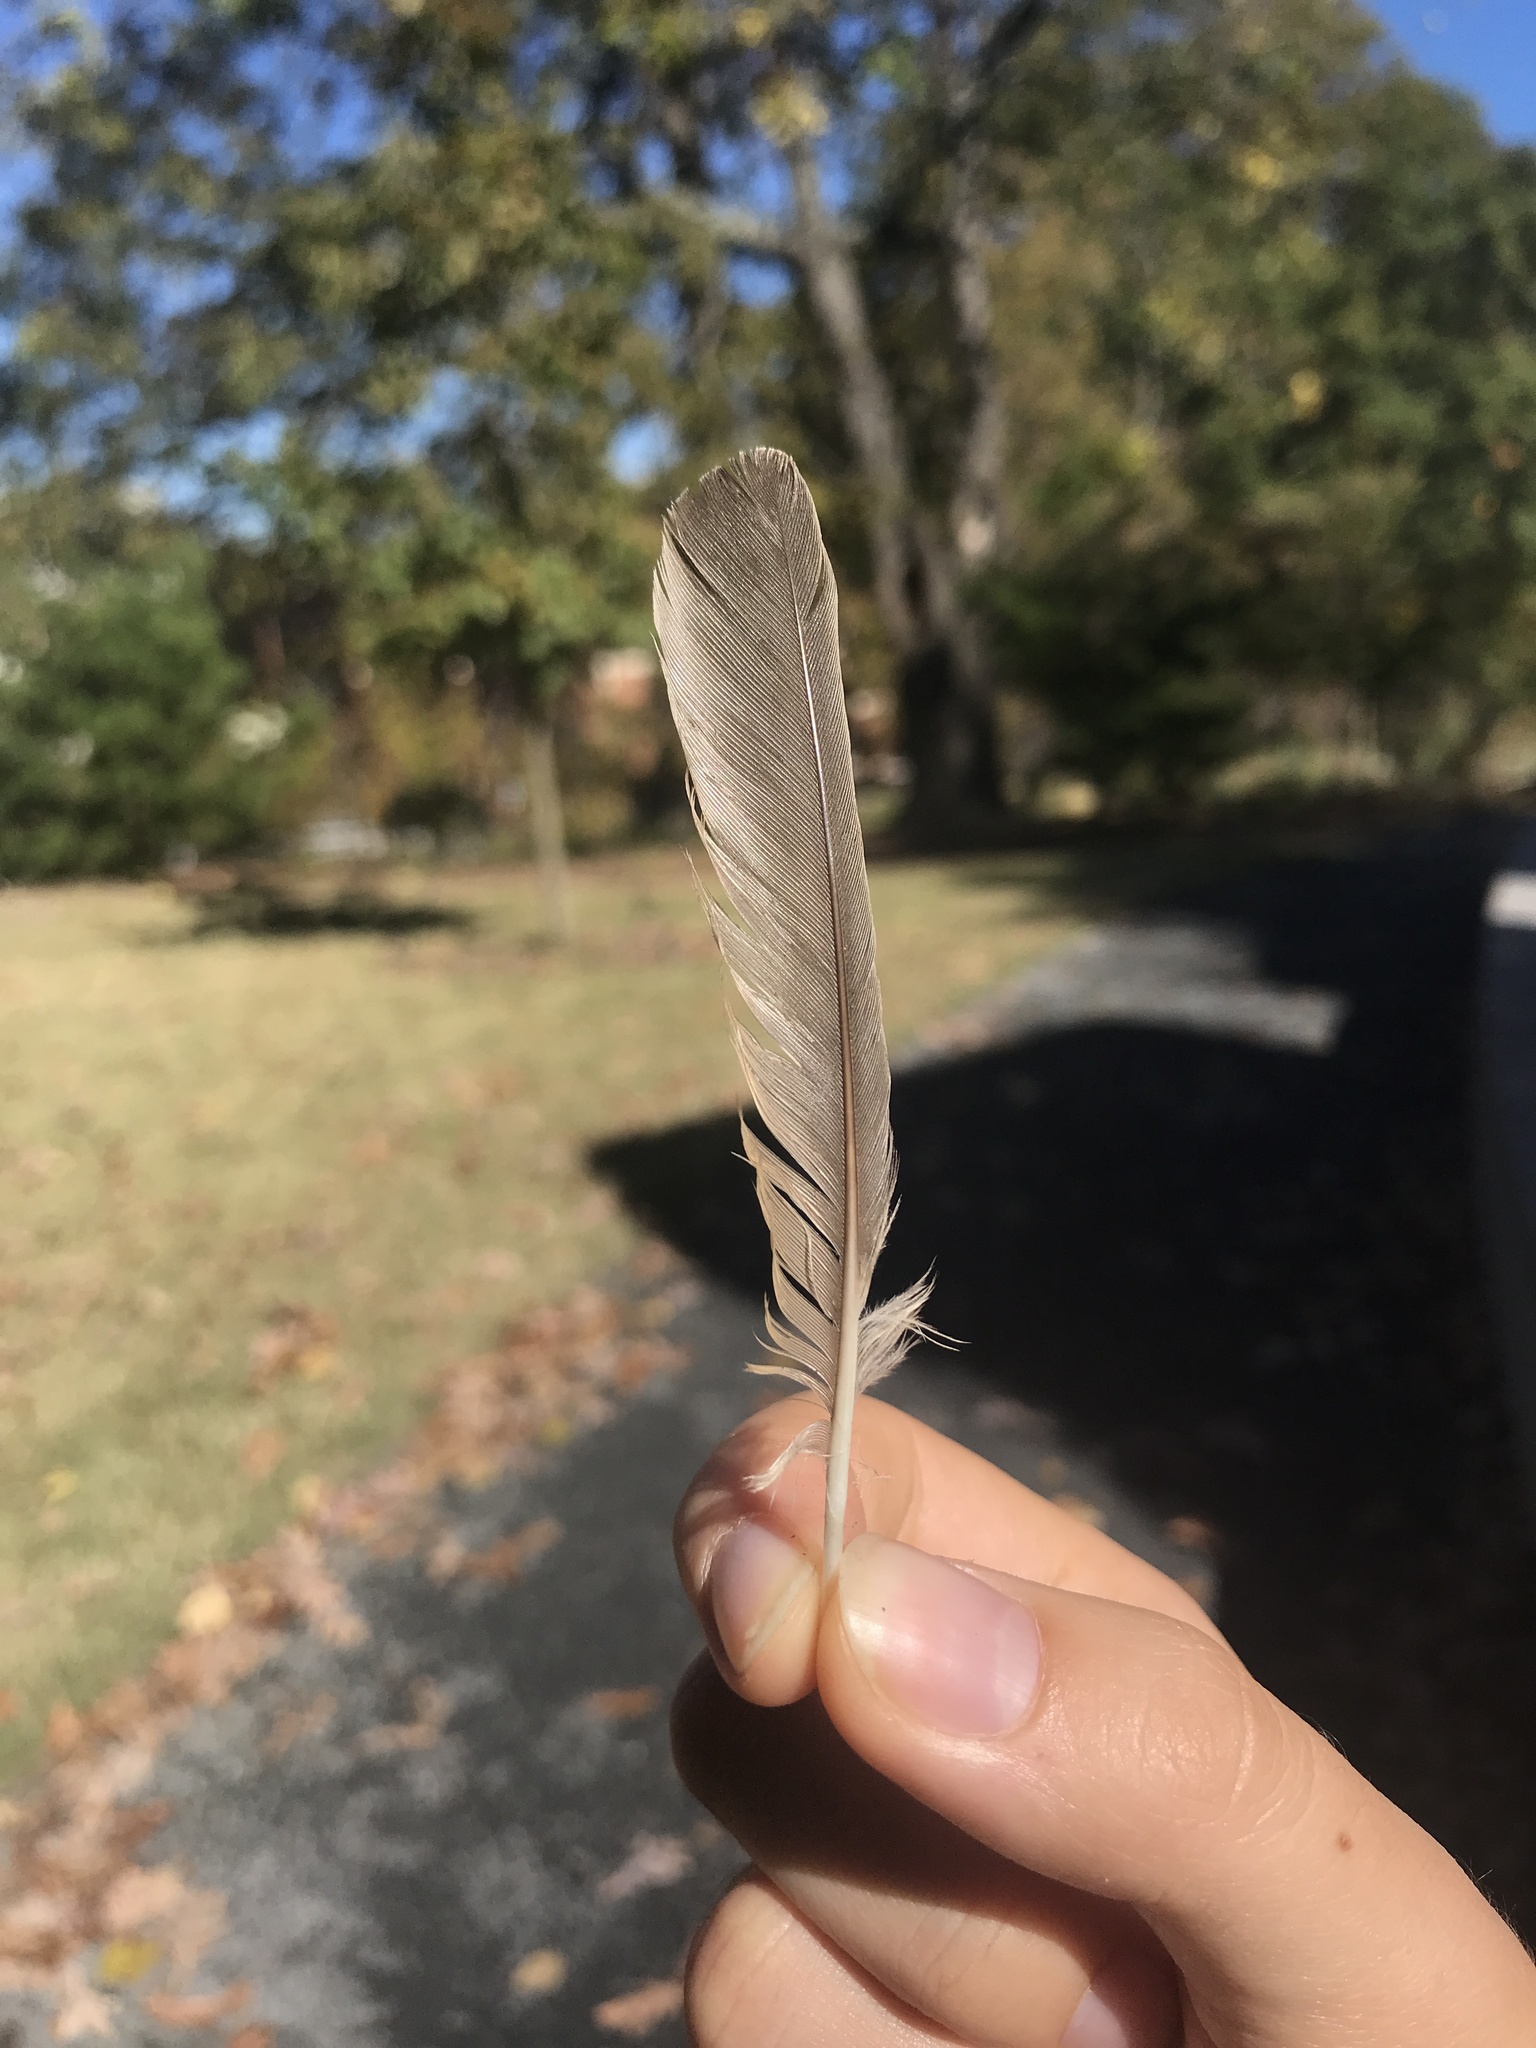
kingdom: Animalia
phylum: Chordata
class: Aves
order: Passeriformes
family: Turdidae
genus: Turdus
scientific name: Turdus migratorius
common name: American robin
